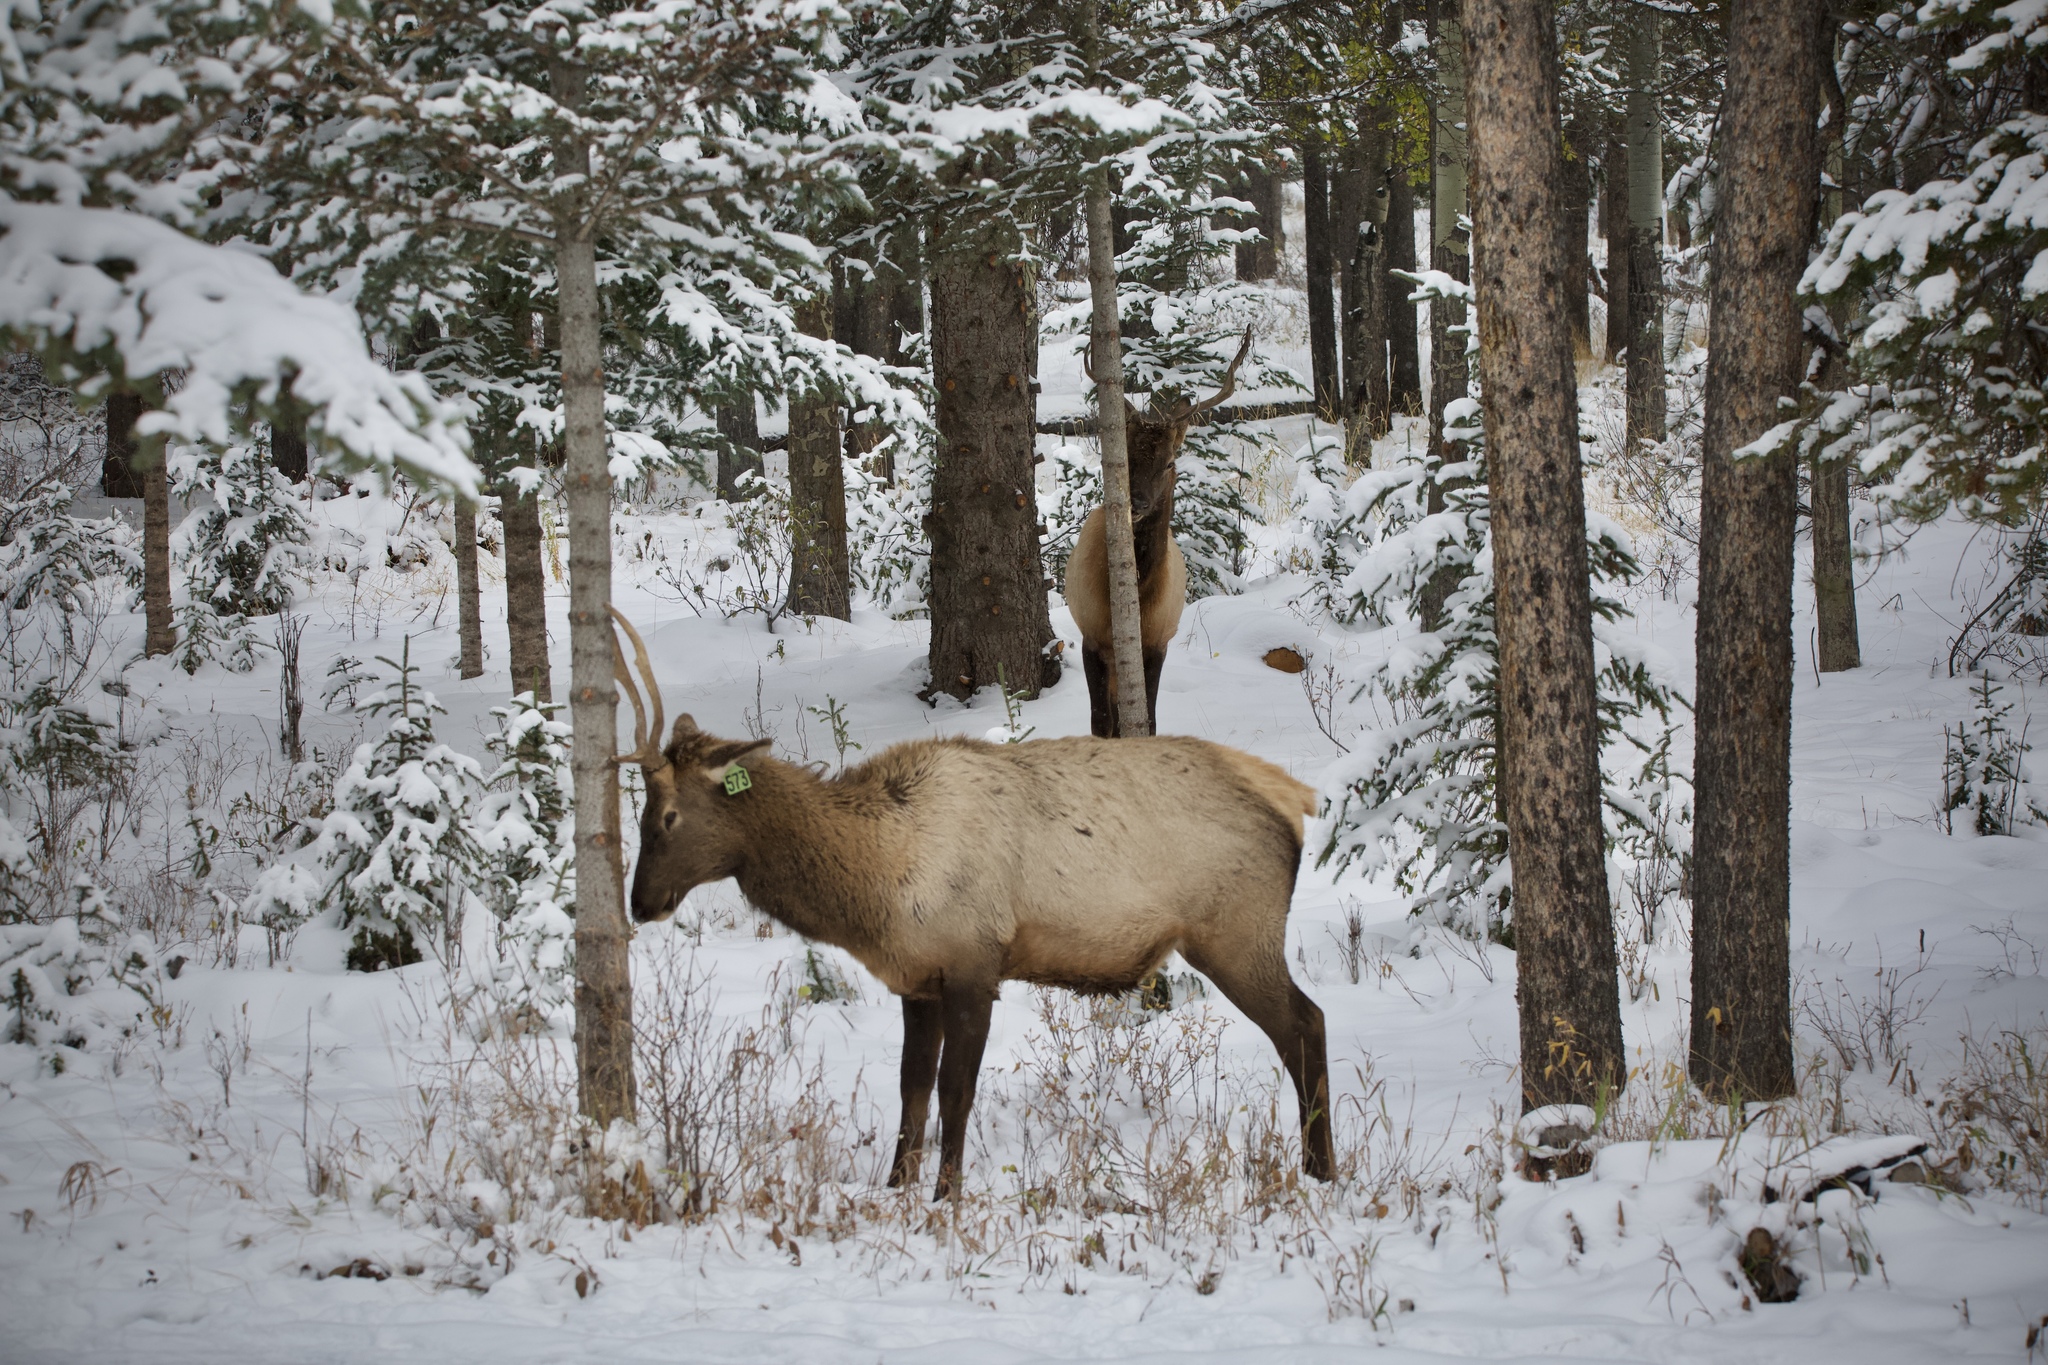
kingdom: Animalia
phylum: Chordata
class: Mammalia
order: Artiodactyla
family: Cervidae
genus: Cervus
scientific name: Cervus elaphus
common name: Red deer
